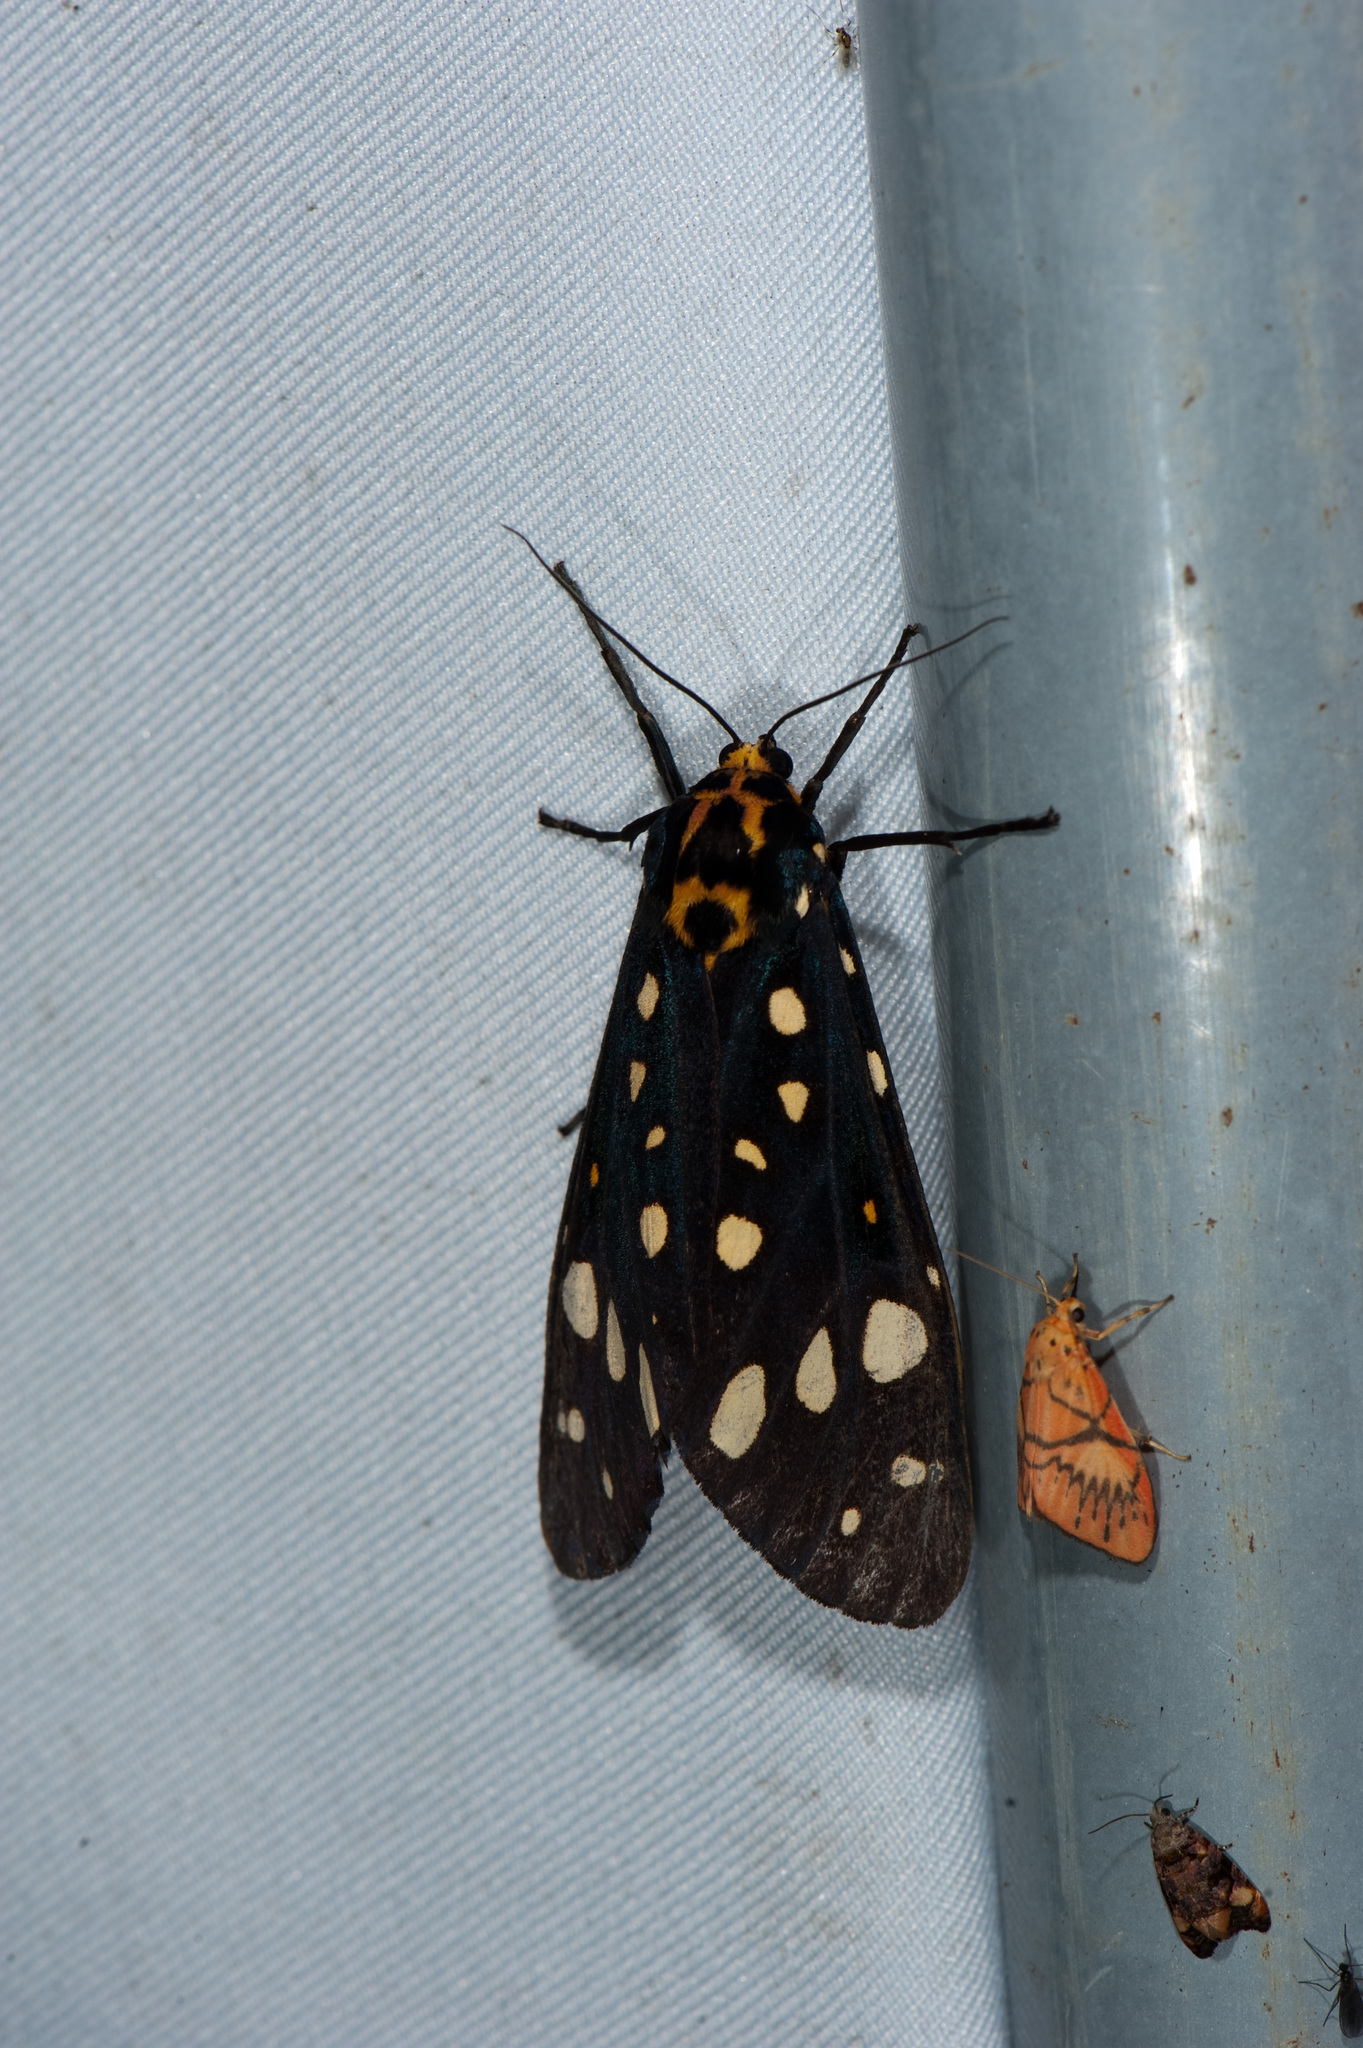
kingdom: Animalia
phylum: Arthropoda
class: Insecta
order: Lepidoptera
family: Erebidae
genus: Aglaomorpha
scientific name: Aglaomorpha histrio
